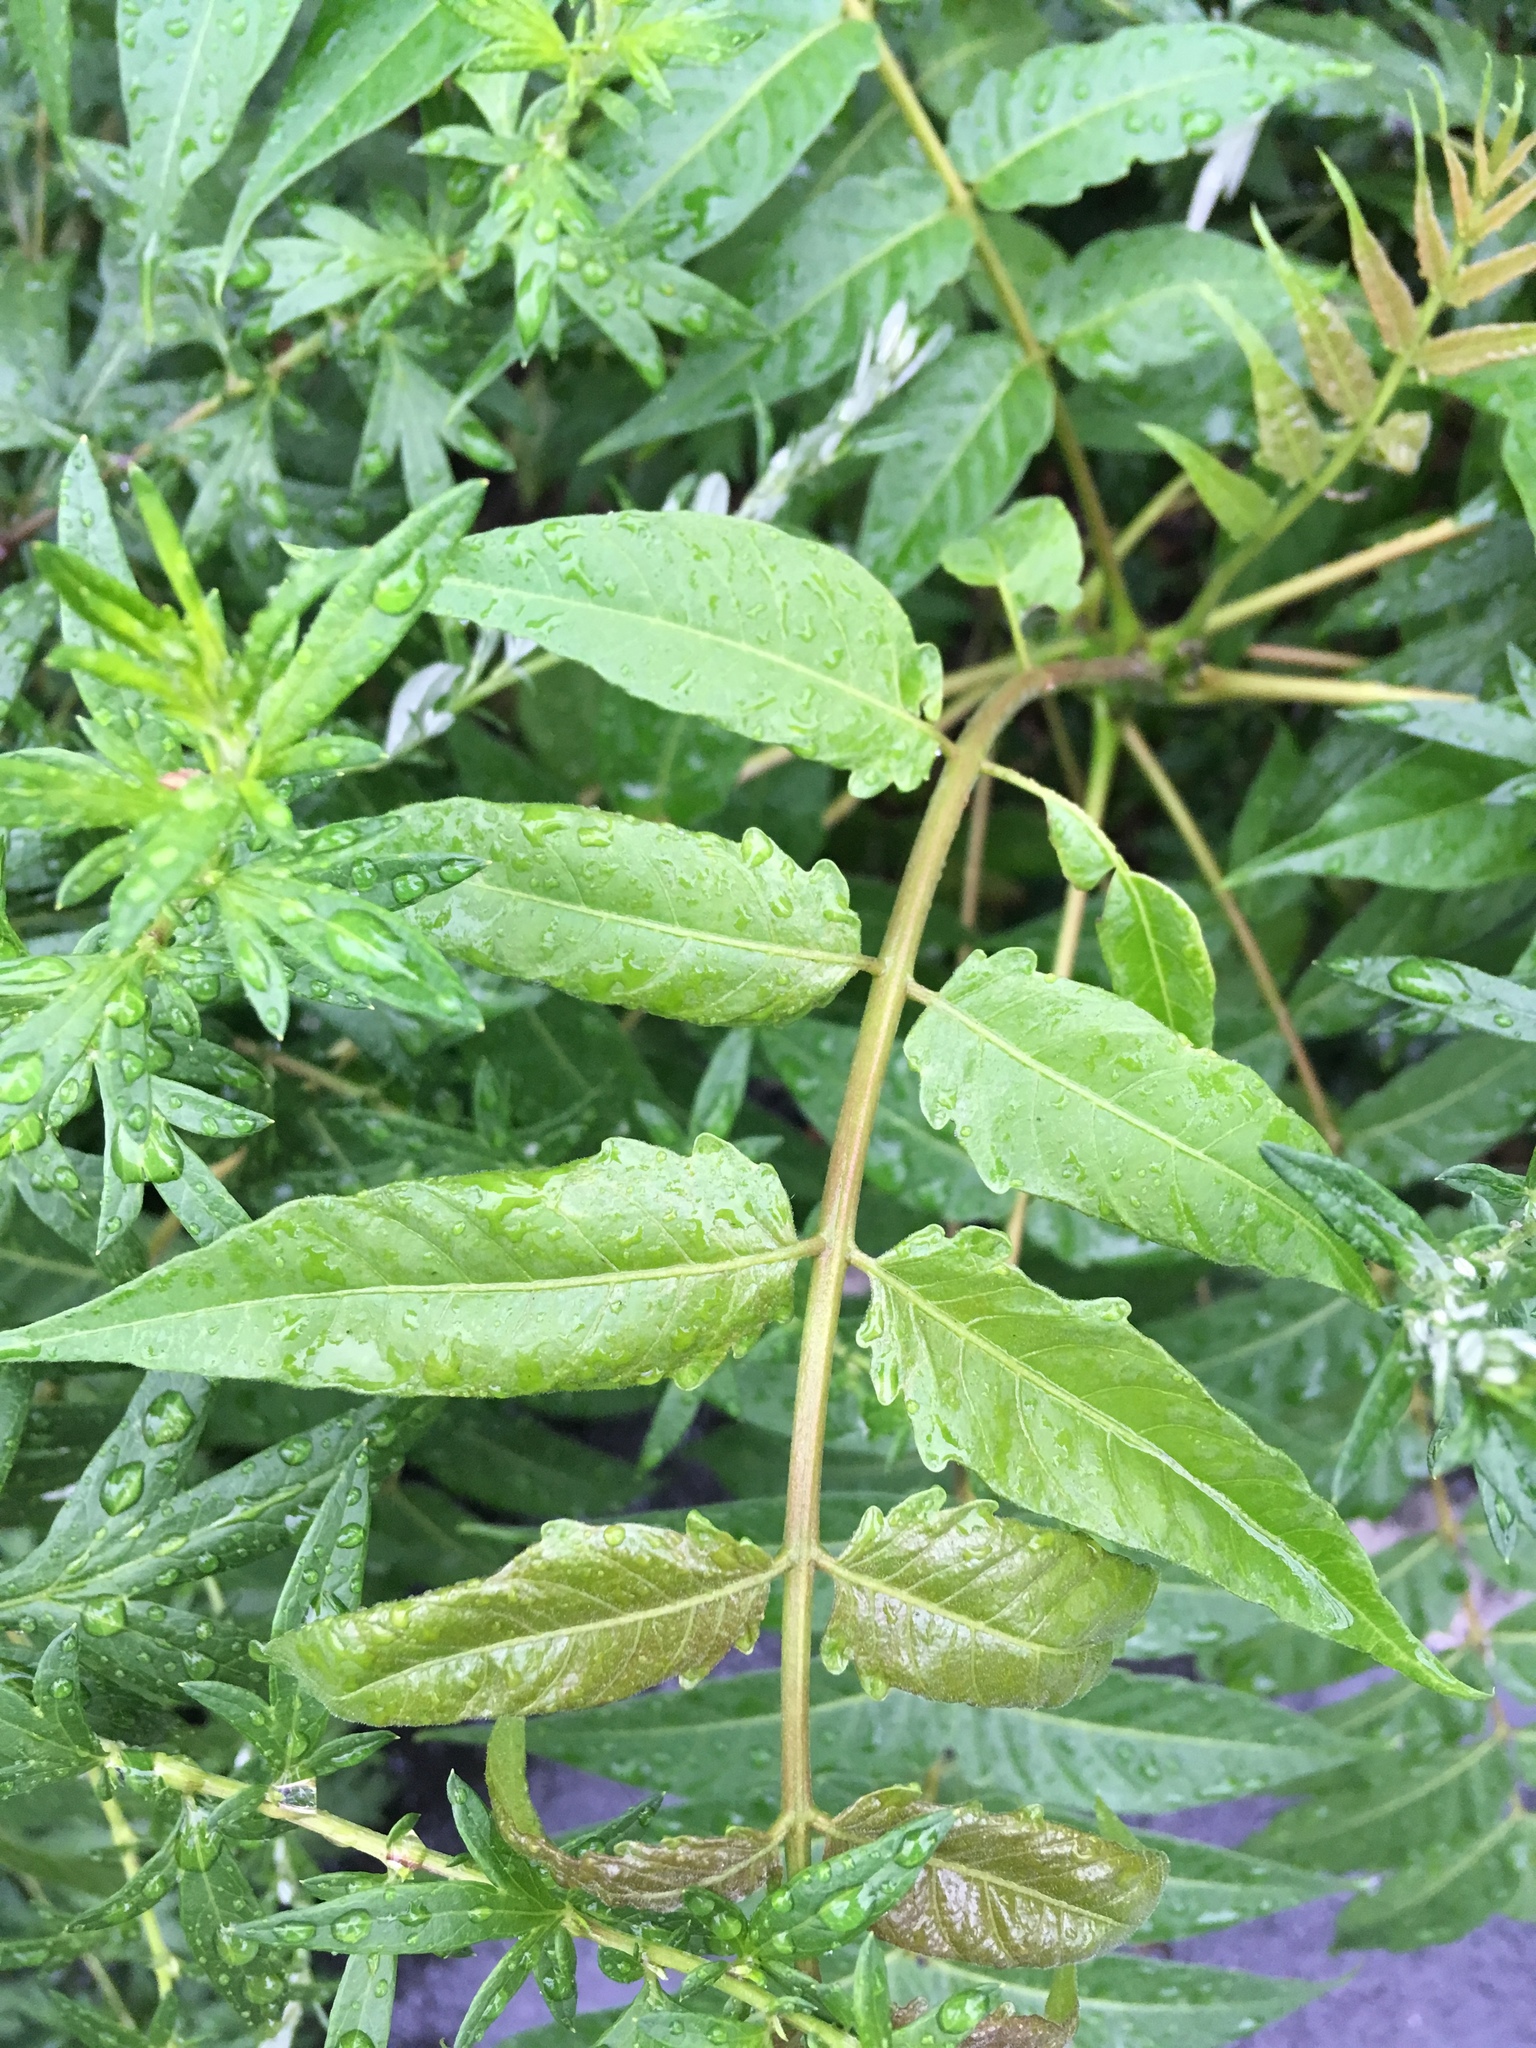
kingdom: Plantae
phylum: Tracheophyta
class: Magnoliopsida
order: Sapindales
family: Simaroubaceae
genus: Ailanthus
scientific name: Ailanthus altissima
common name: Tree-of-heaven
